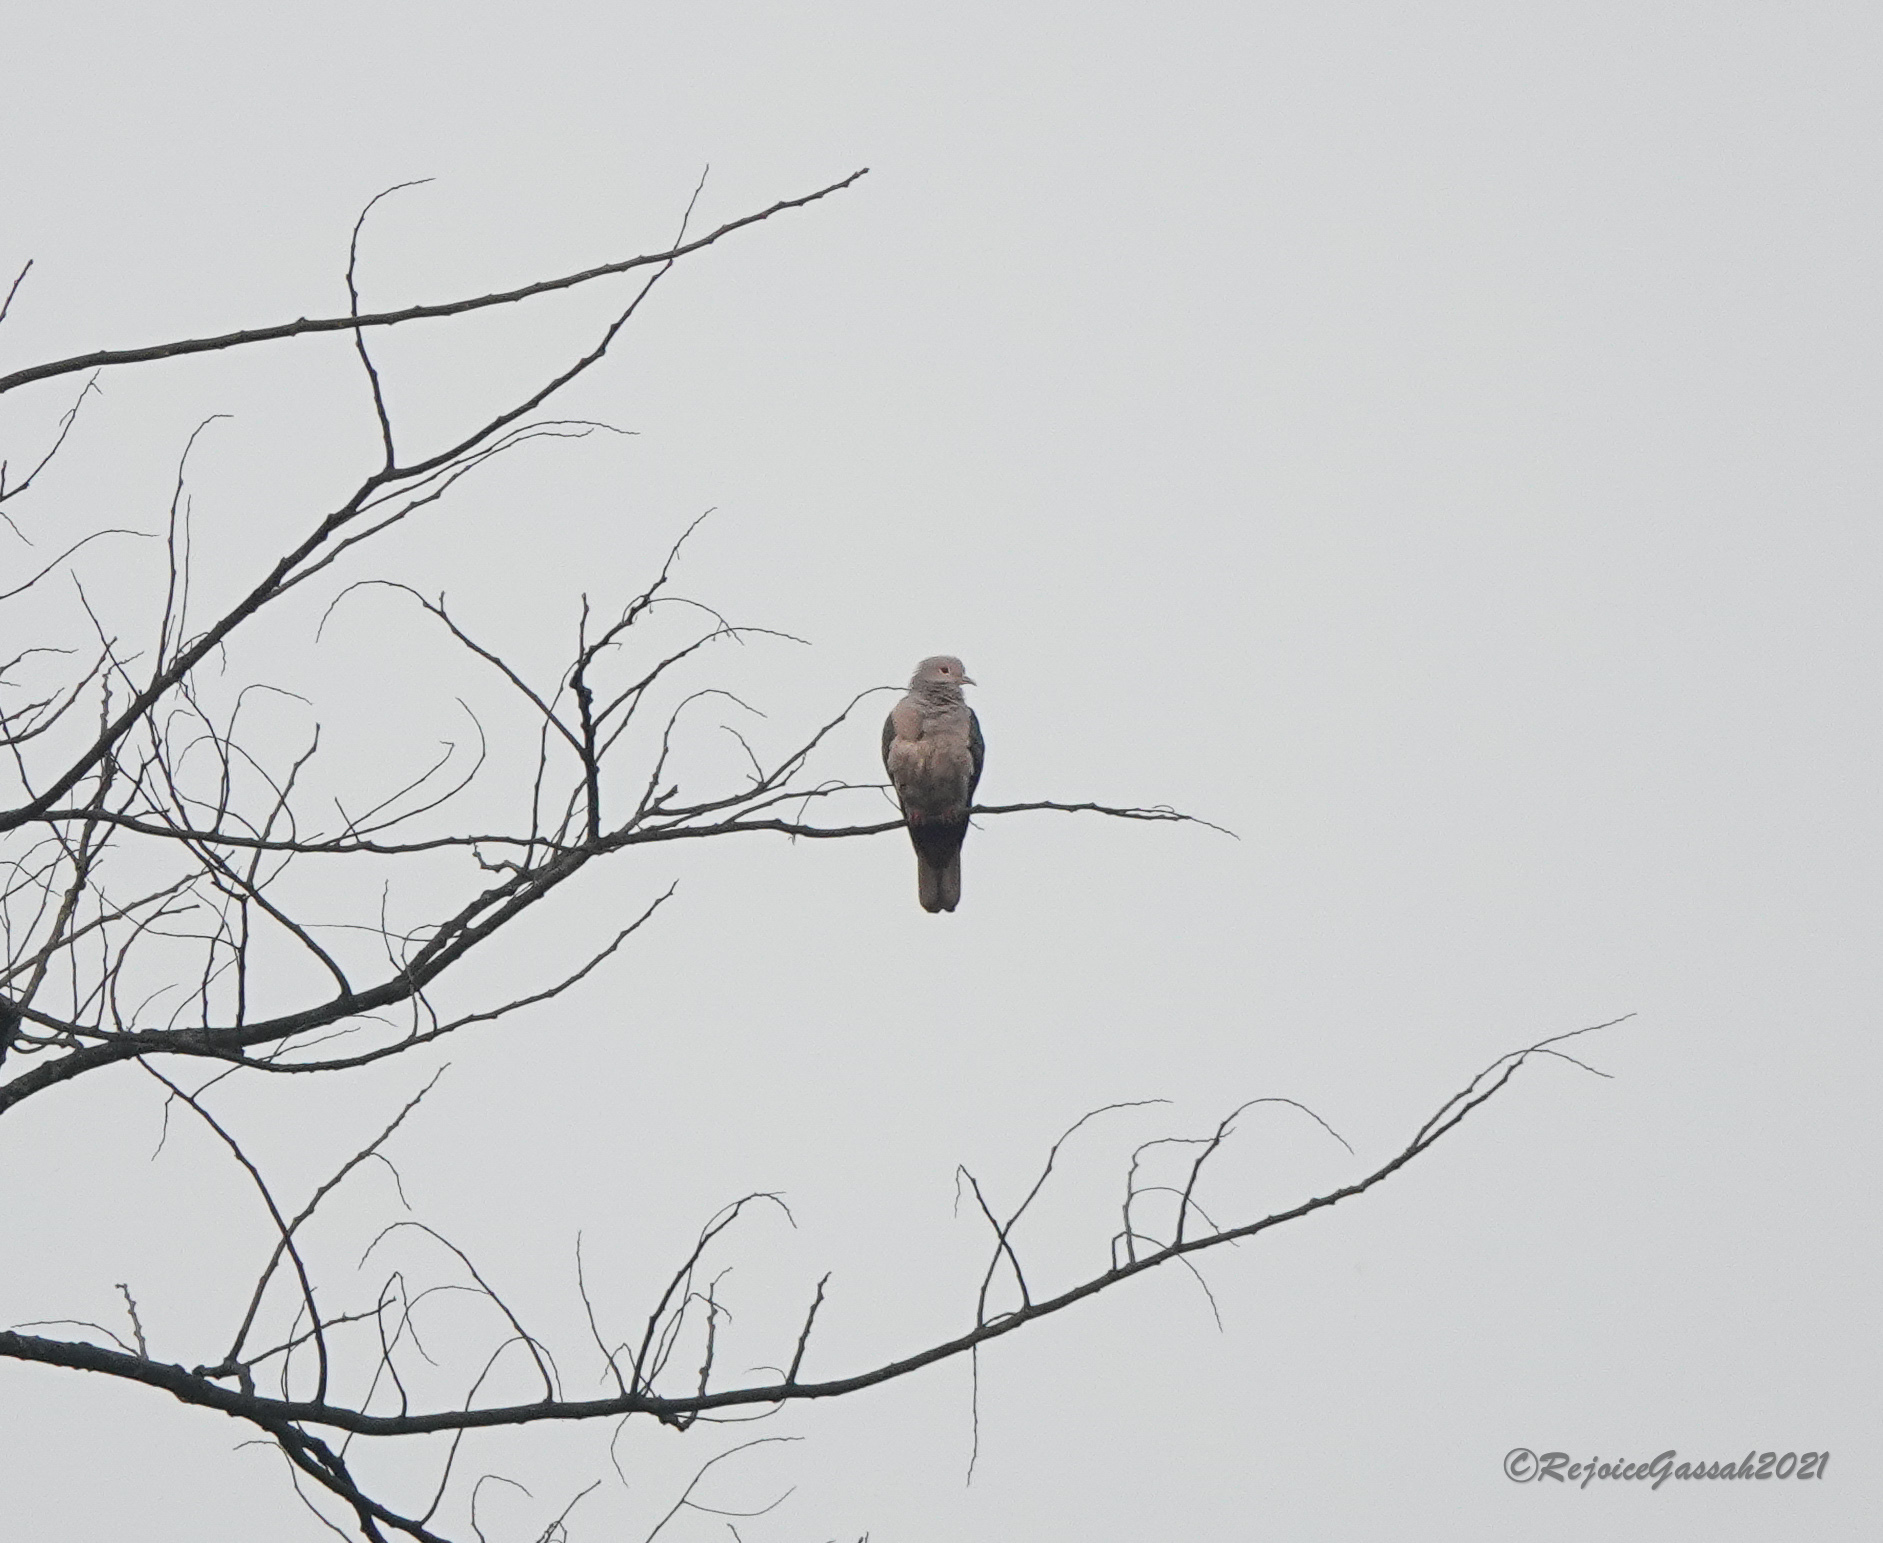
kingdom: Animalia
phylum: Chordata
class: Aves
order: Columbiformes
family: Columbidae
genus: Ducula
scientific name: Ducula aenea
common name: Green imperial pigeon
